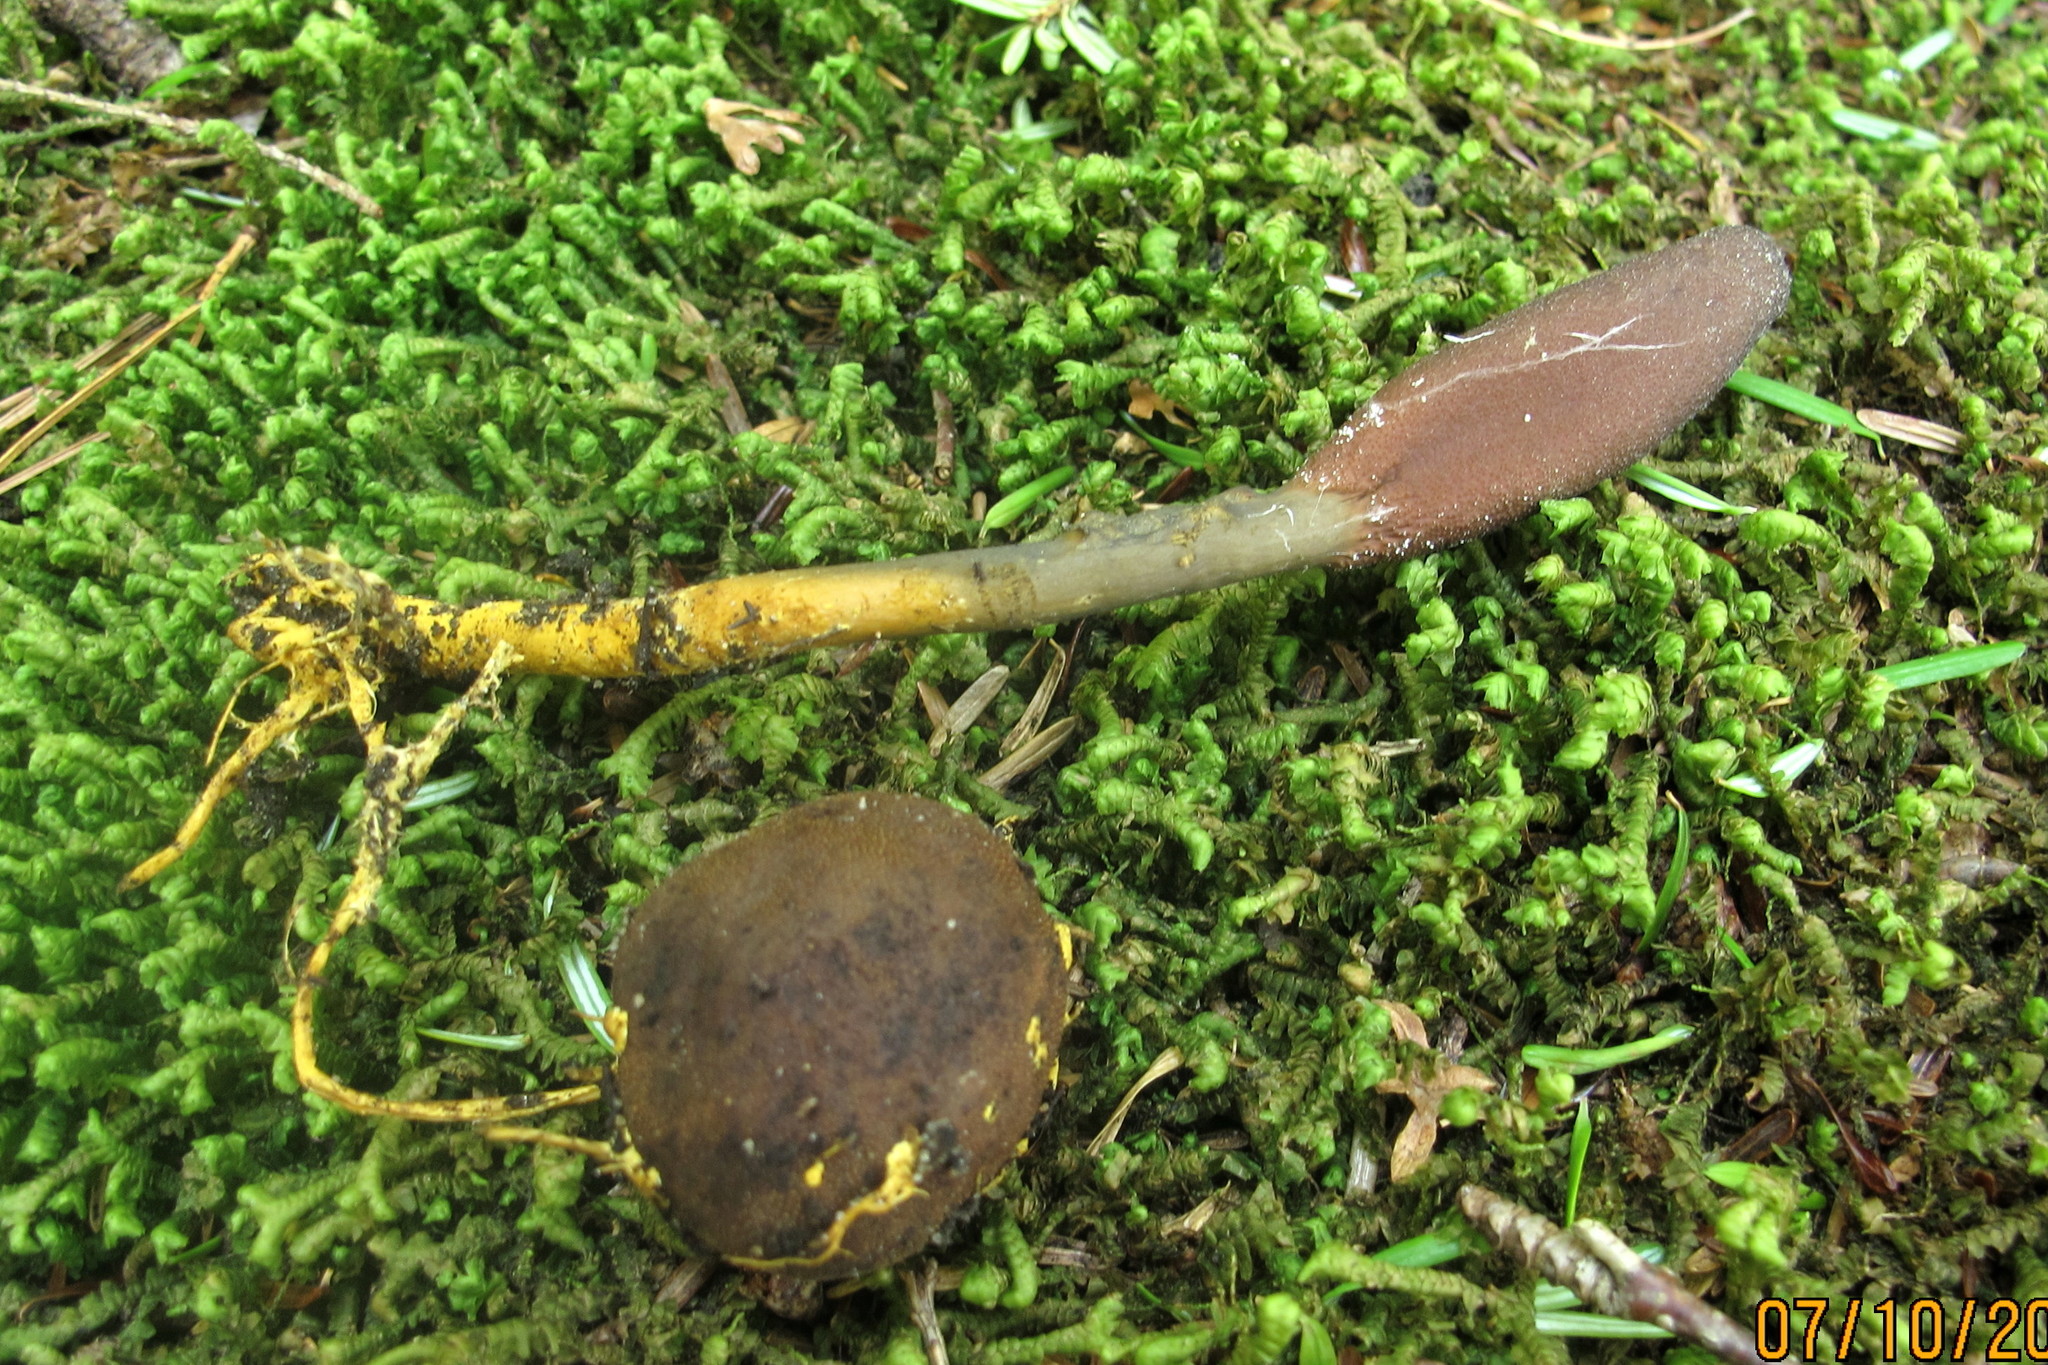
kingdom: Fungi
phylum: Ascomycota
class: Sordariomycetes
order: Hypocreales
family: Ophiocordycipitaceae
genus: Tolypocladium
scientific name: Tolypocladium ophioglossoides
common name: Snaketongue truffleclub
